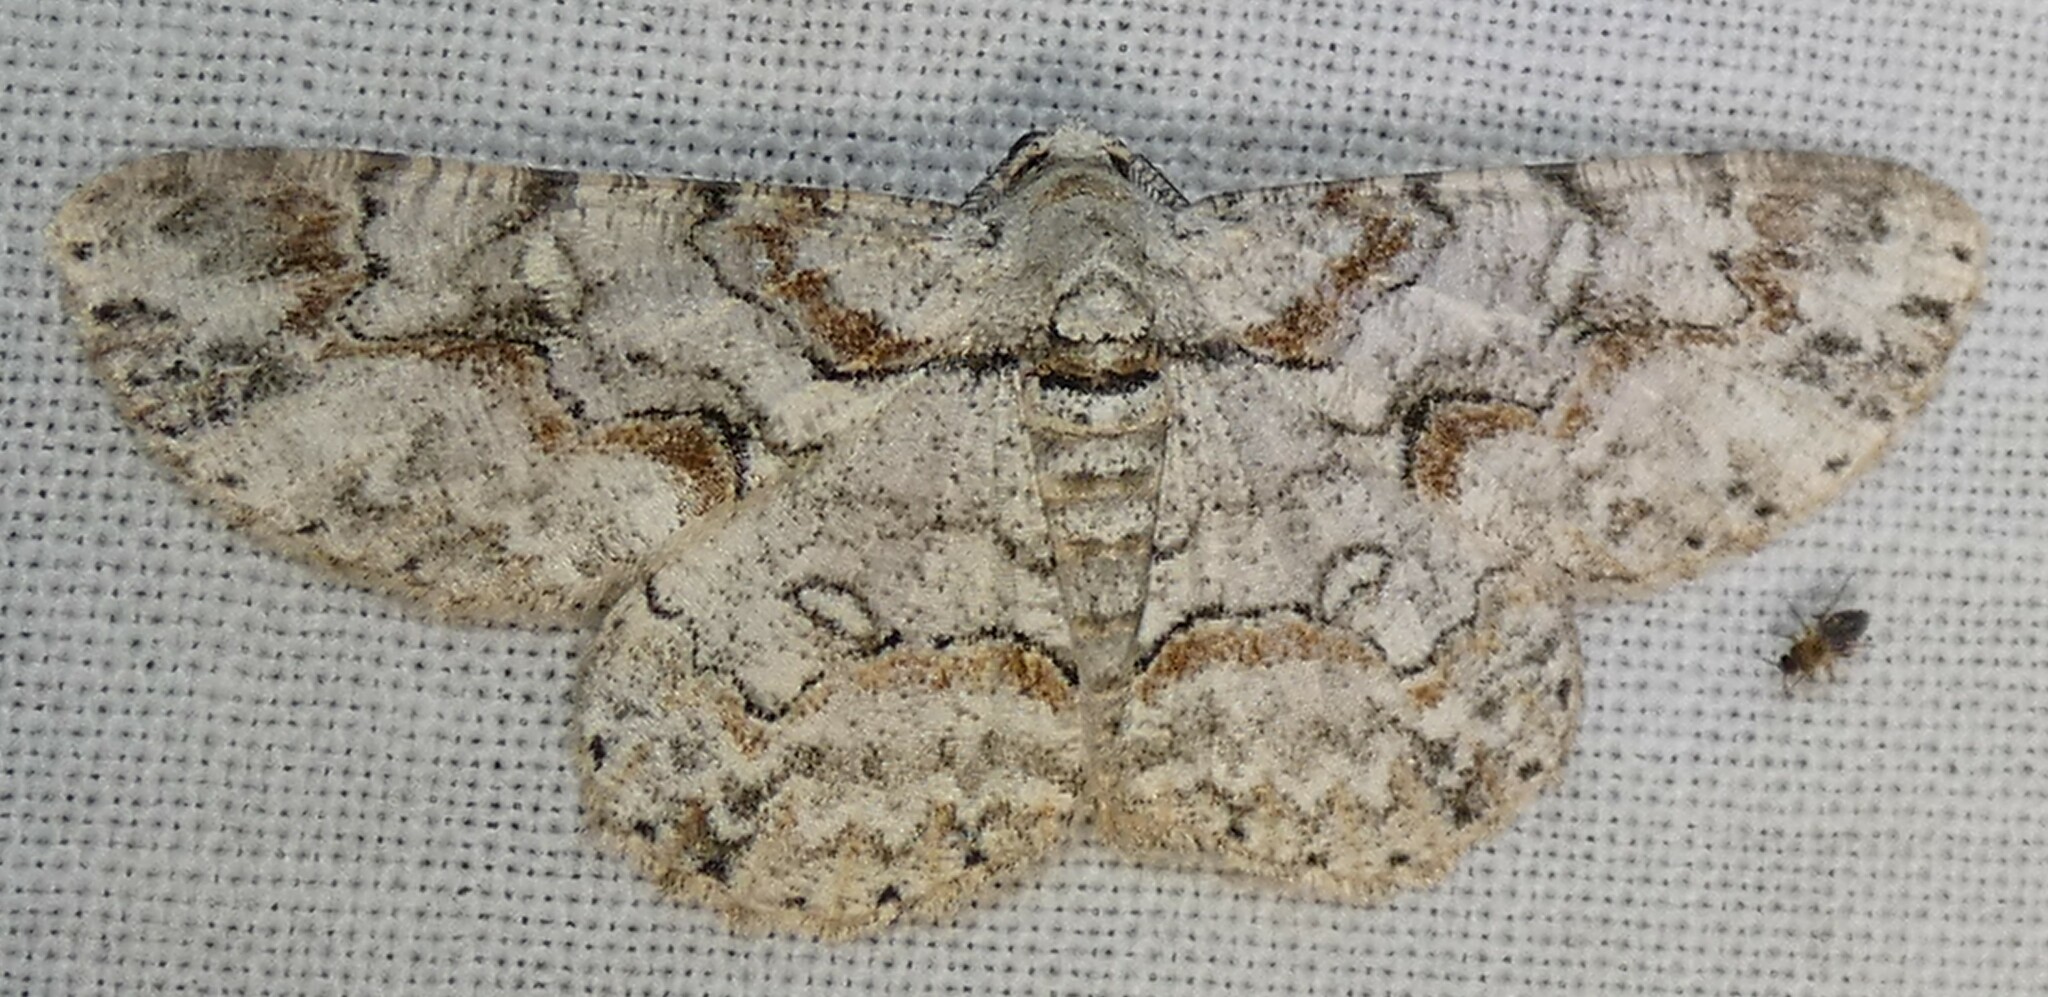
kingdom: Animalia
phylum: Arthropoda
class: Insecta
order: Lepidoptera
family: Geometridae
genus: Iridopsis
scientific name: Iridopsis defectaria
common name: Brown-shaded gray
